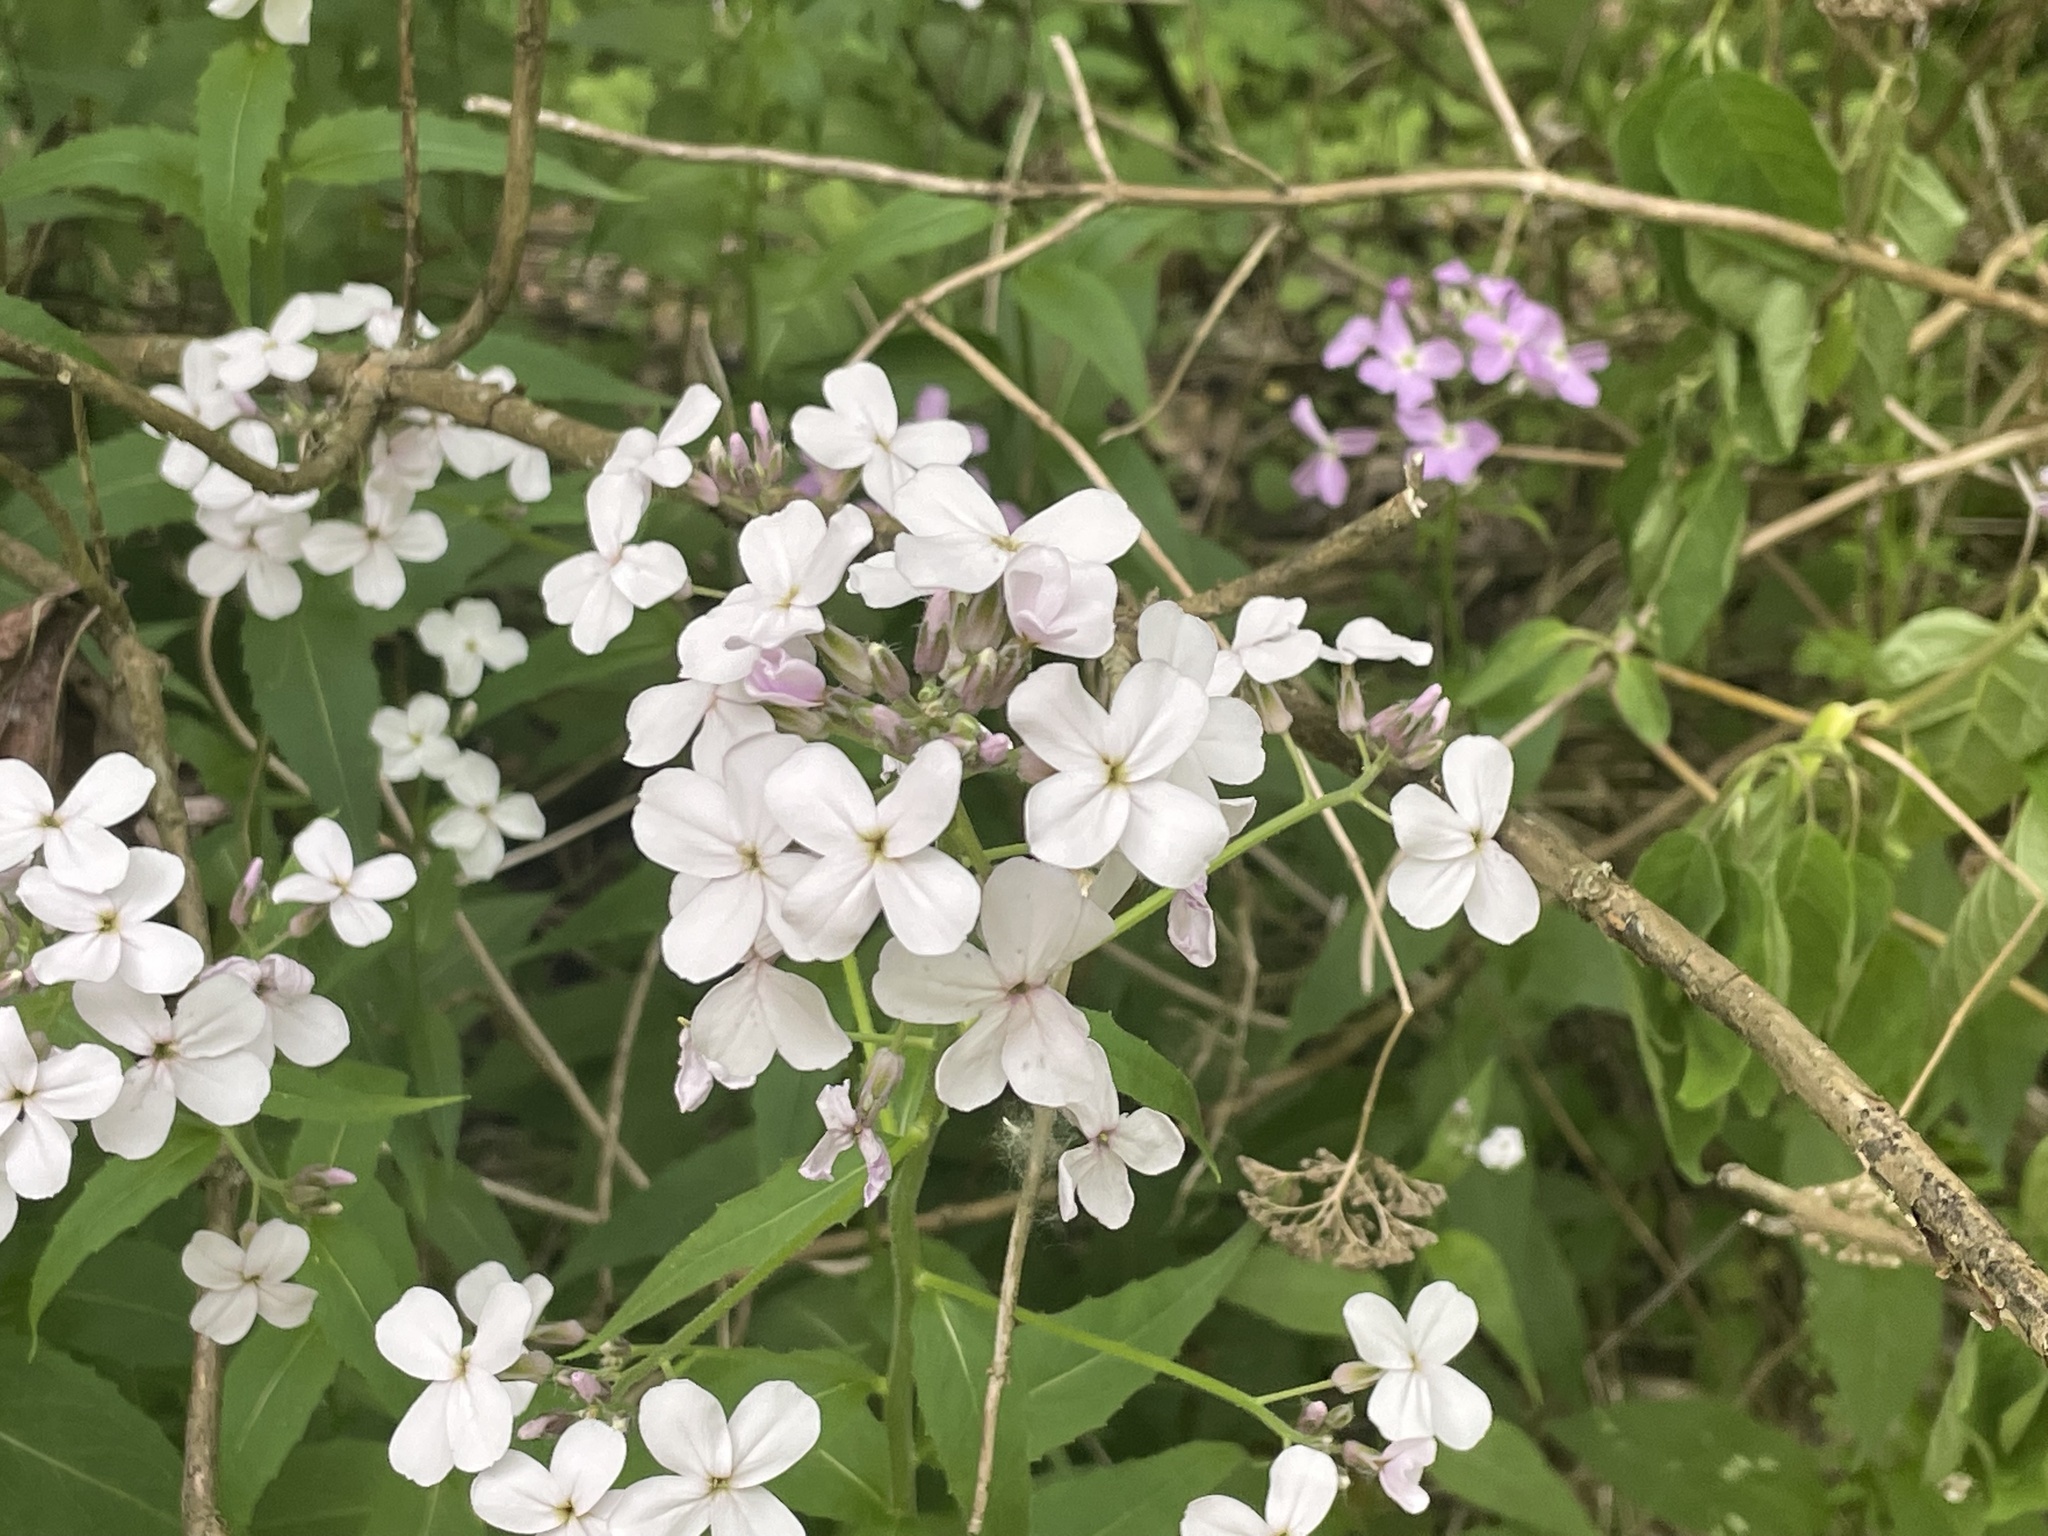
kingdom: Plantae
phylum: Tracheophyta
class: Magnoliopsida
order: Brassicales
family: Brassicaceae
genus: Hesperis
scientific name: Hesperis matronalis
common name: Dame's-violet
